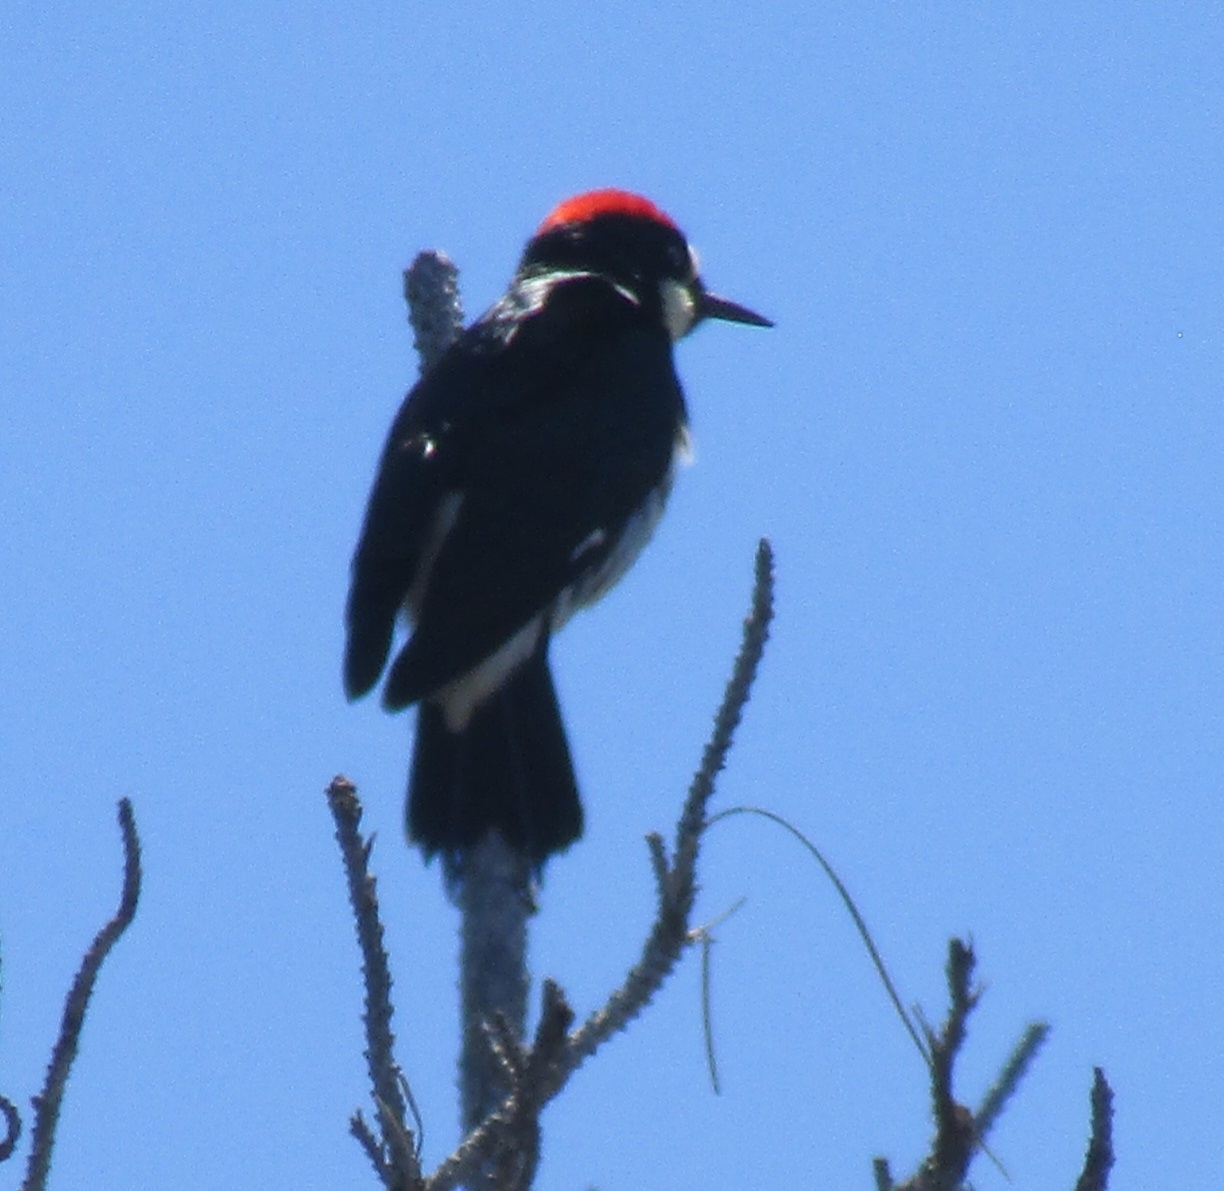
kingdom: Animalia
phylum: Chordata
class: Aves
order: Piciformes
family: Picidae
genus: Melanerpes
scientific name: Melanerpes formicivorus
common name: Acorn woodpecker
